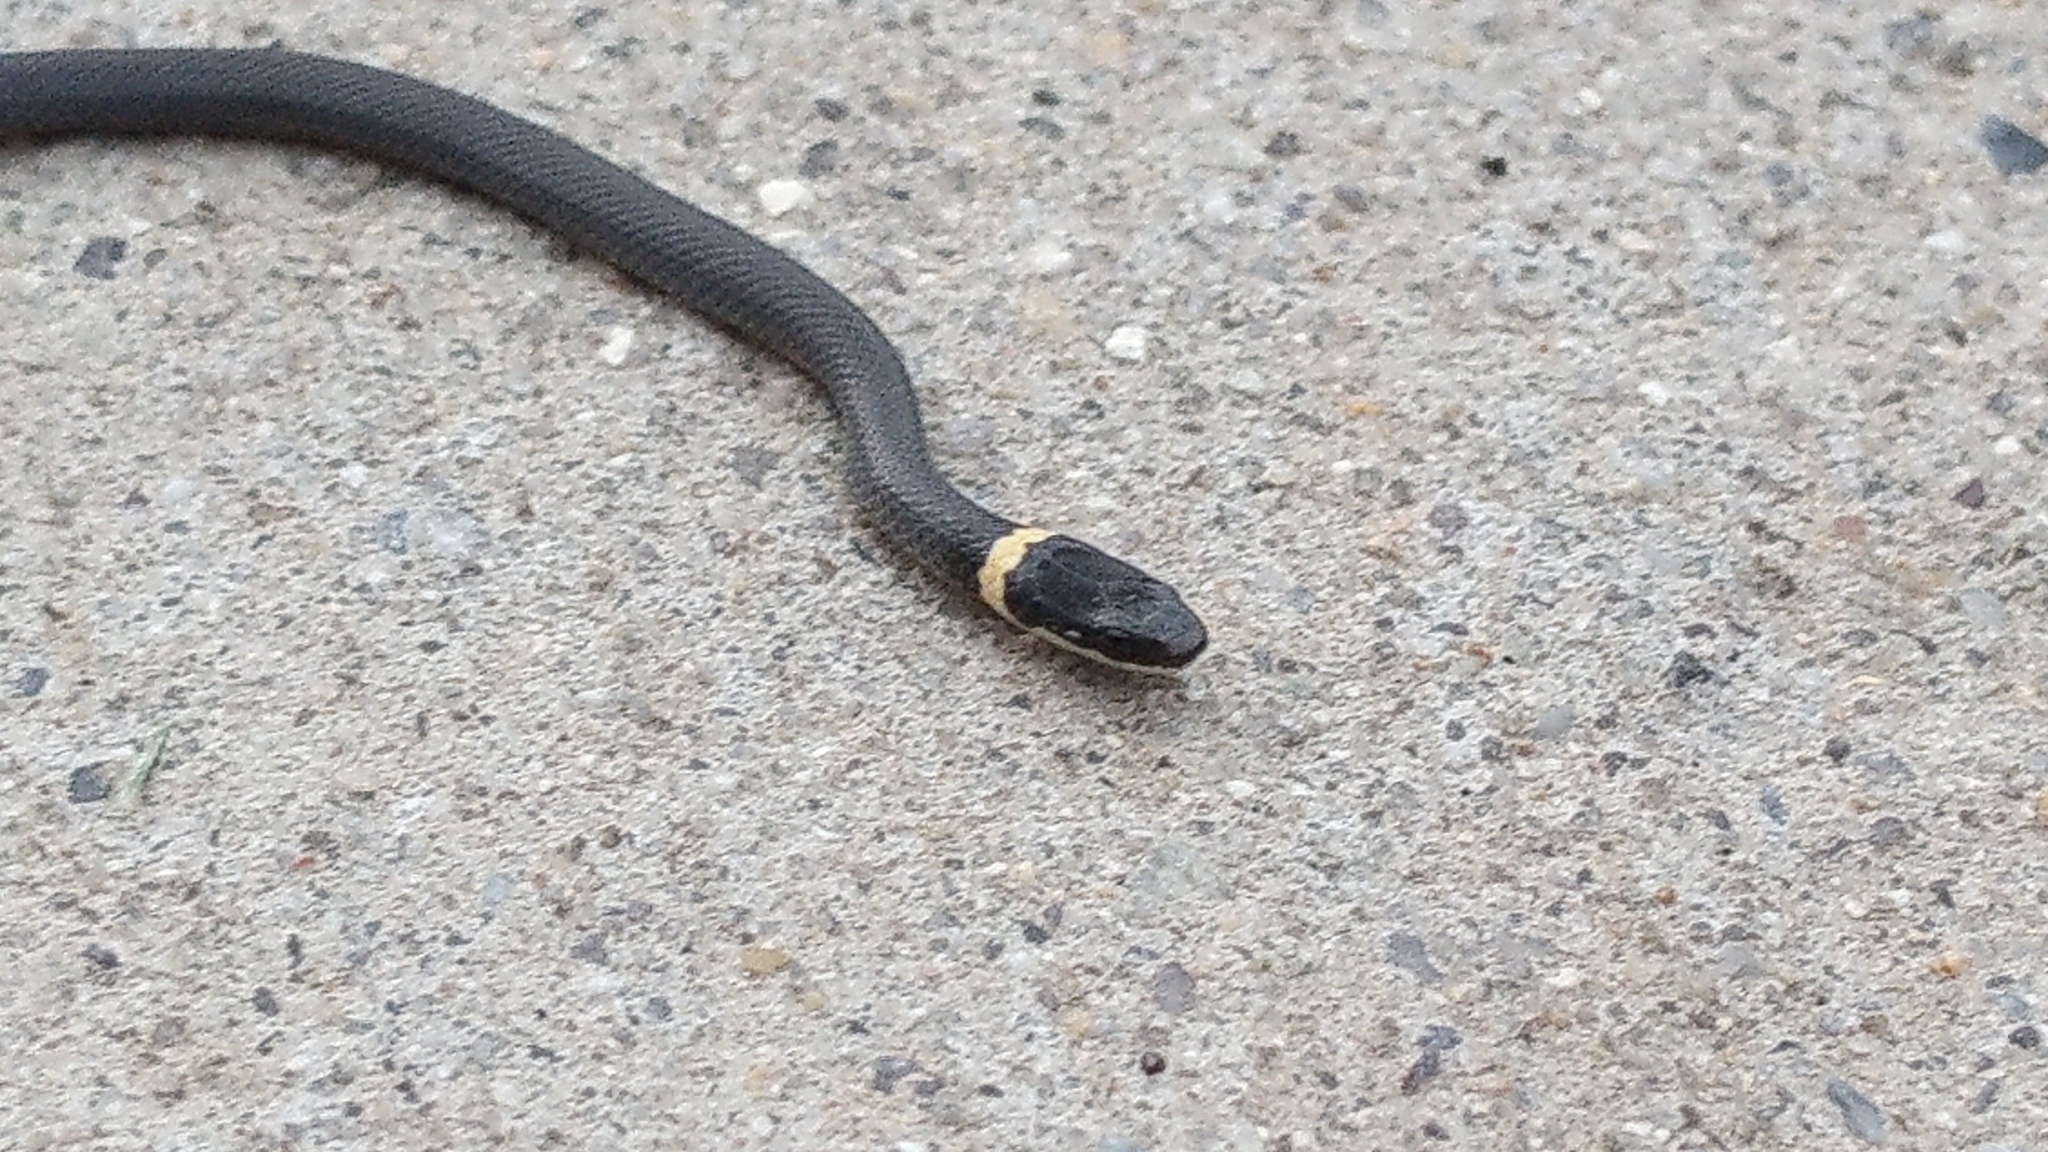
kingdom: Animalia
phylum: Chordata
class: Squamata
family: Colubridae
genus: Diadophis
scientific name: Diadophis punctatus
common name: Ringneck snake
